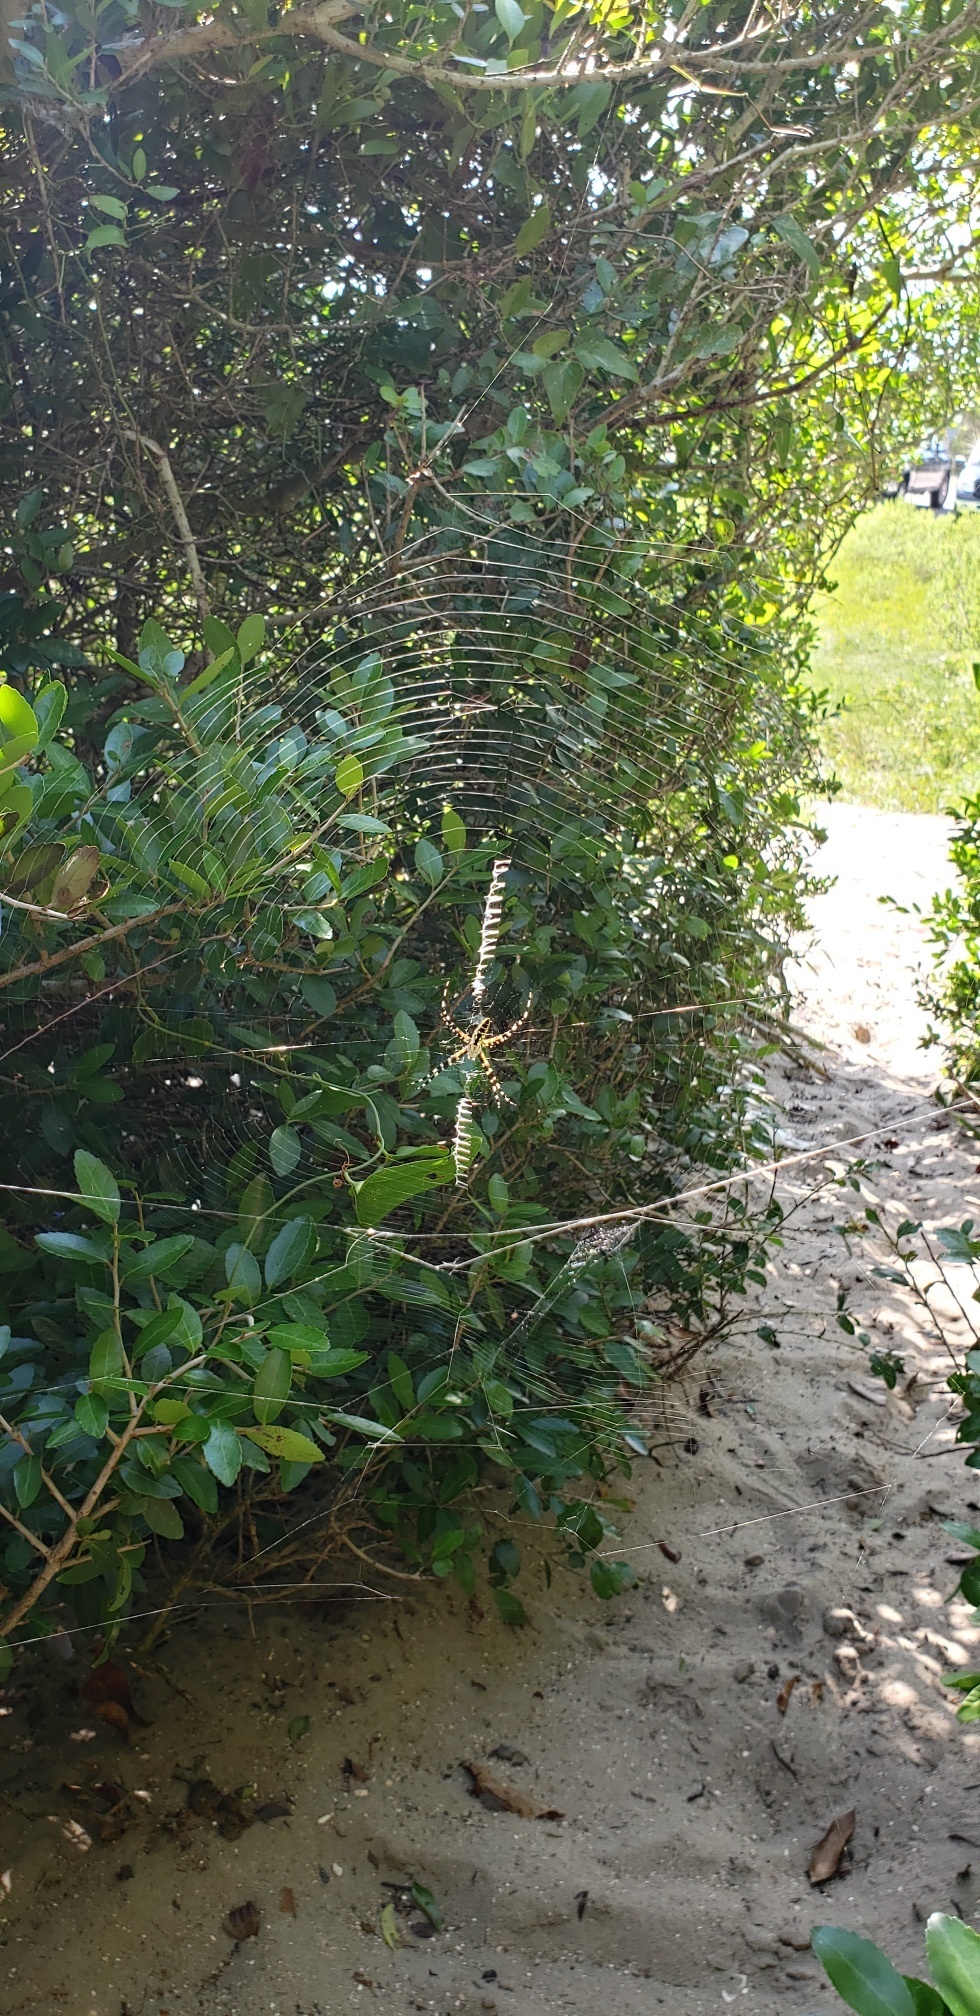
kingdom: Animalia
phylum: Arthropoda
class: Arachnida
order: Araneae
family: Araneidae
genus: Argiope
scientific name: Argiope aurantia
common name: Orb weavers
